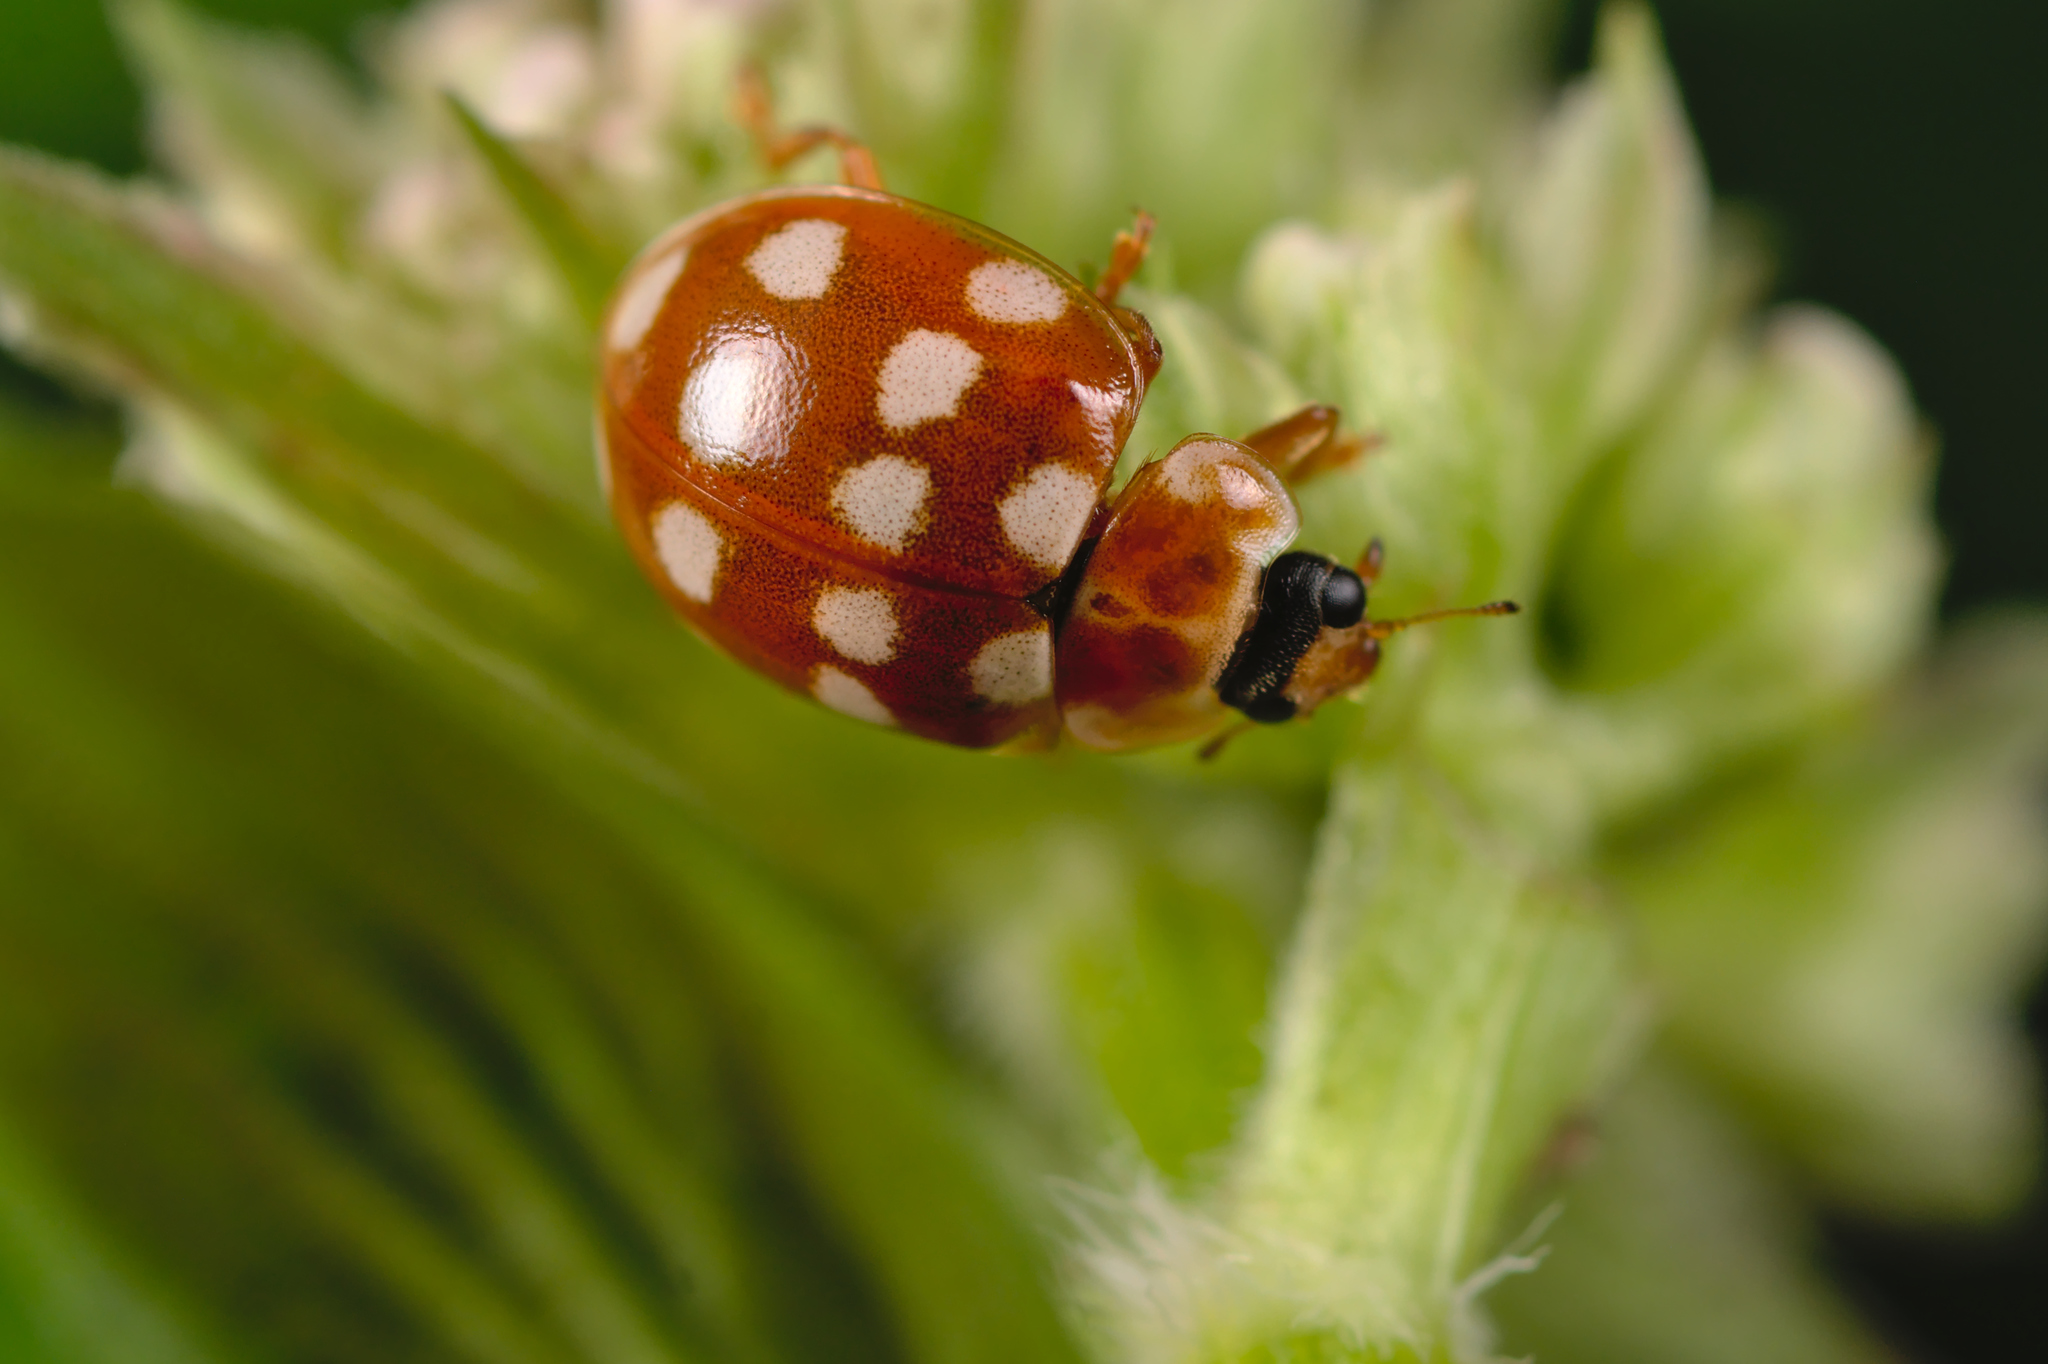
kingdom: Animalia
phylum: Arthropoda
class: Insecta
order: Coleoptera
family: Coccinellidae
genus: Calvia
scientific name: Calvia quatuordecimguttata
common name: Cream-spot ladybird
